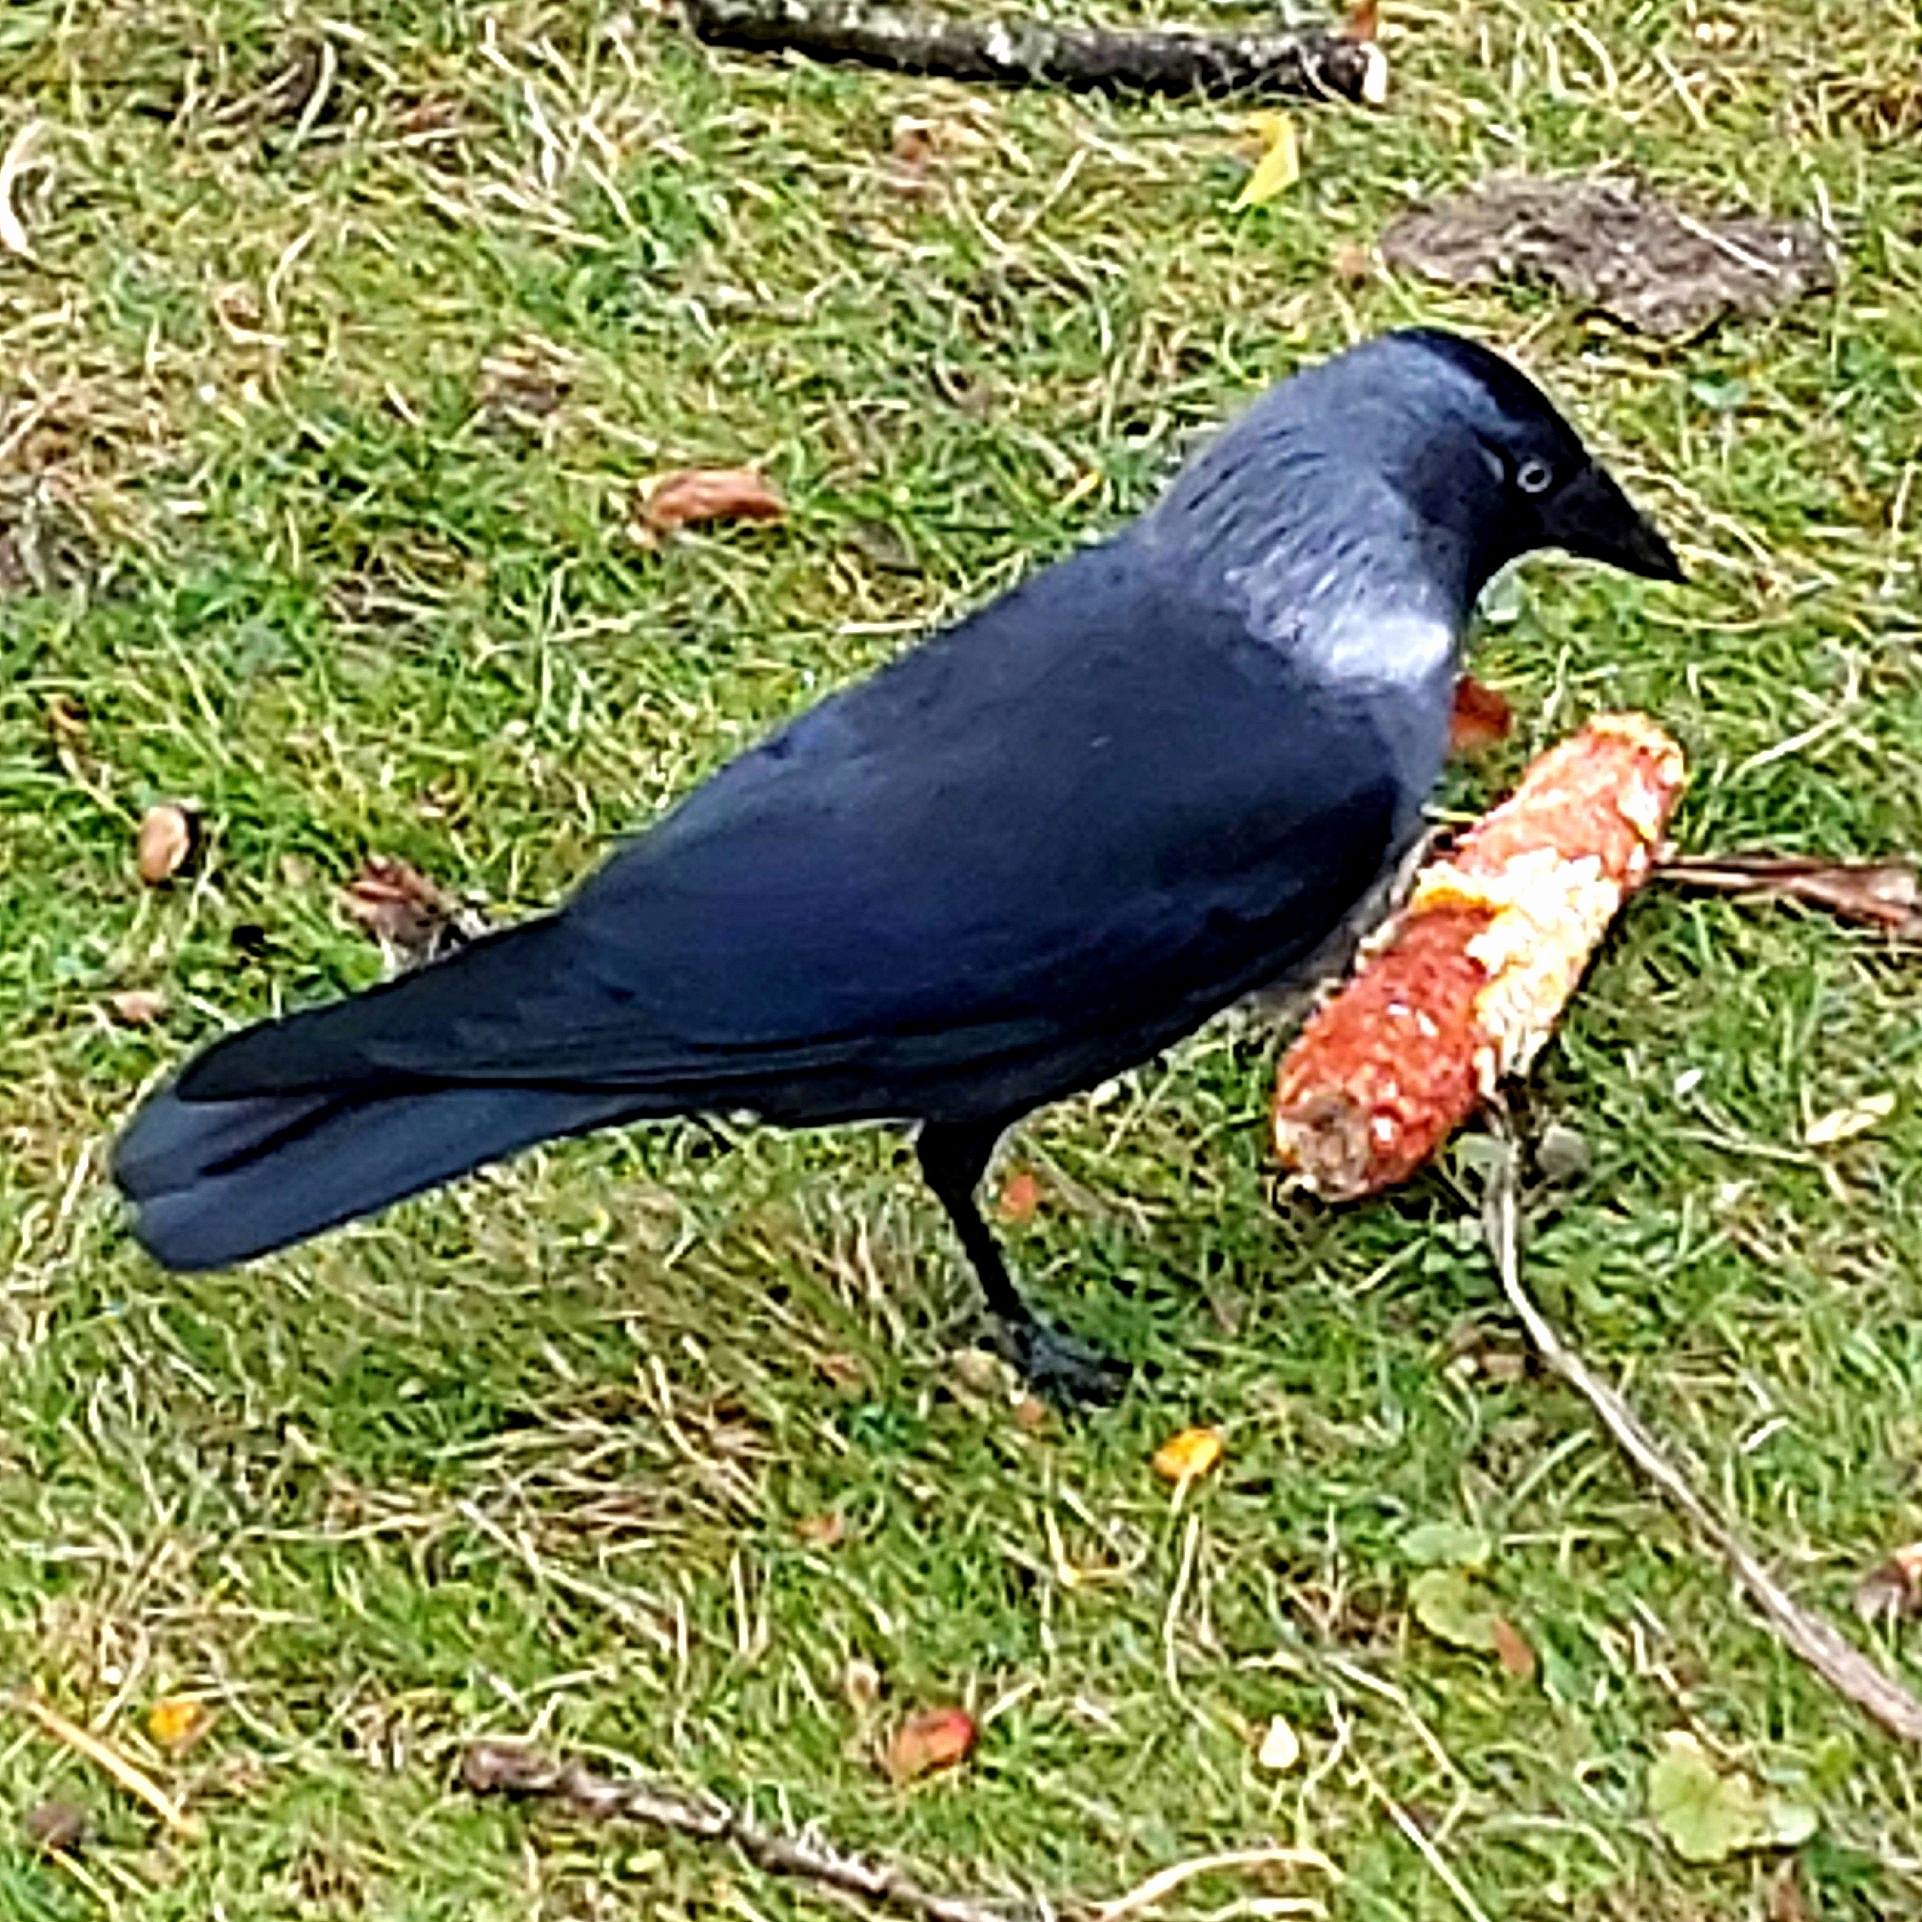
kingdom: Animalia
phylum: Chordata
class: Aves
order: Passeriformes
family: Corvidae
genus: Coloeus
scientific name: Coloeus monedula
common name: Western jackdaw
